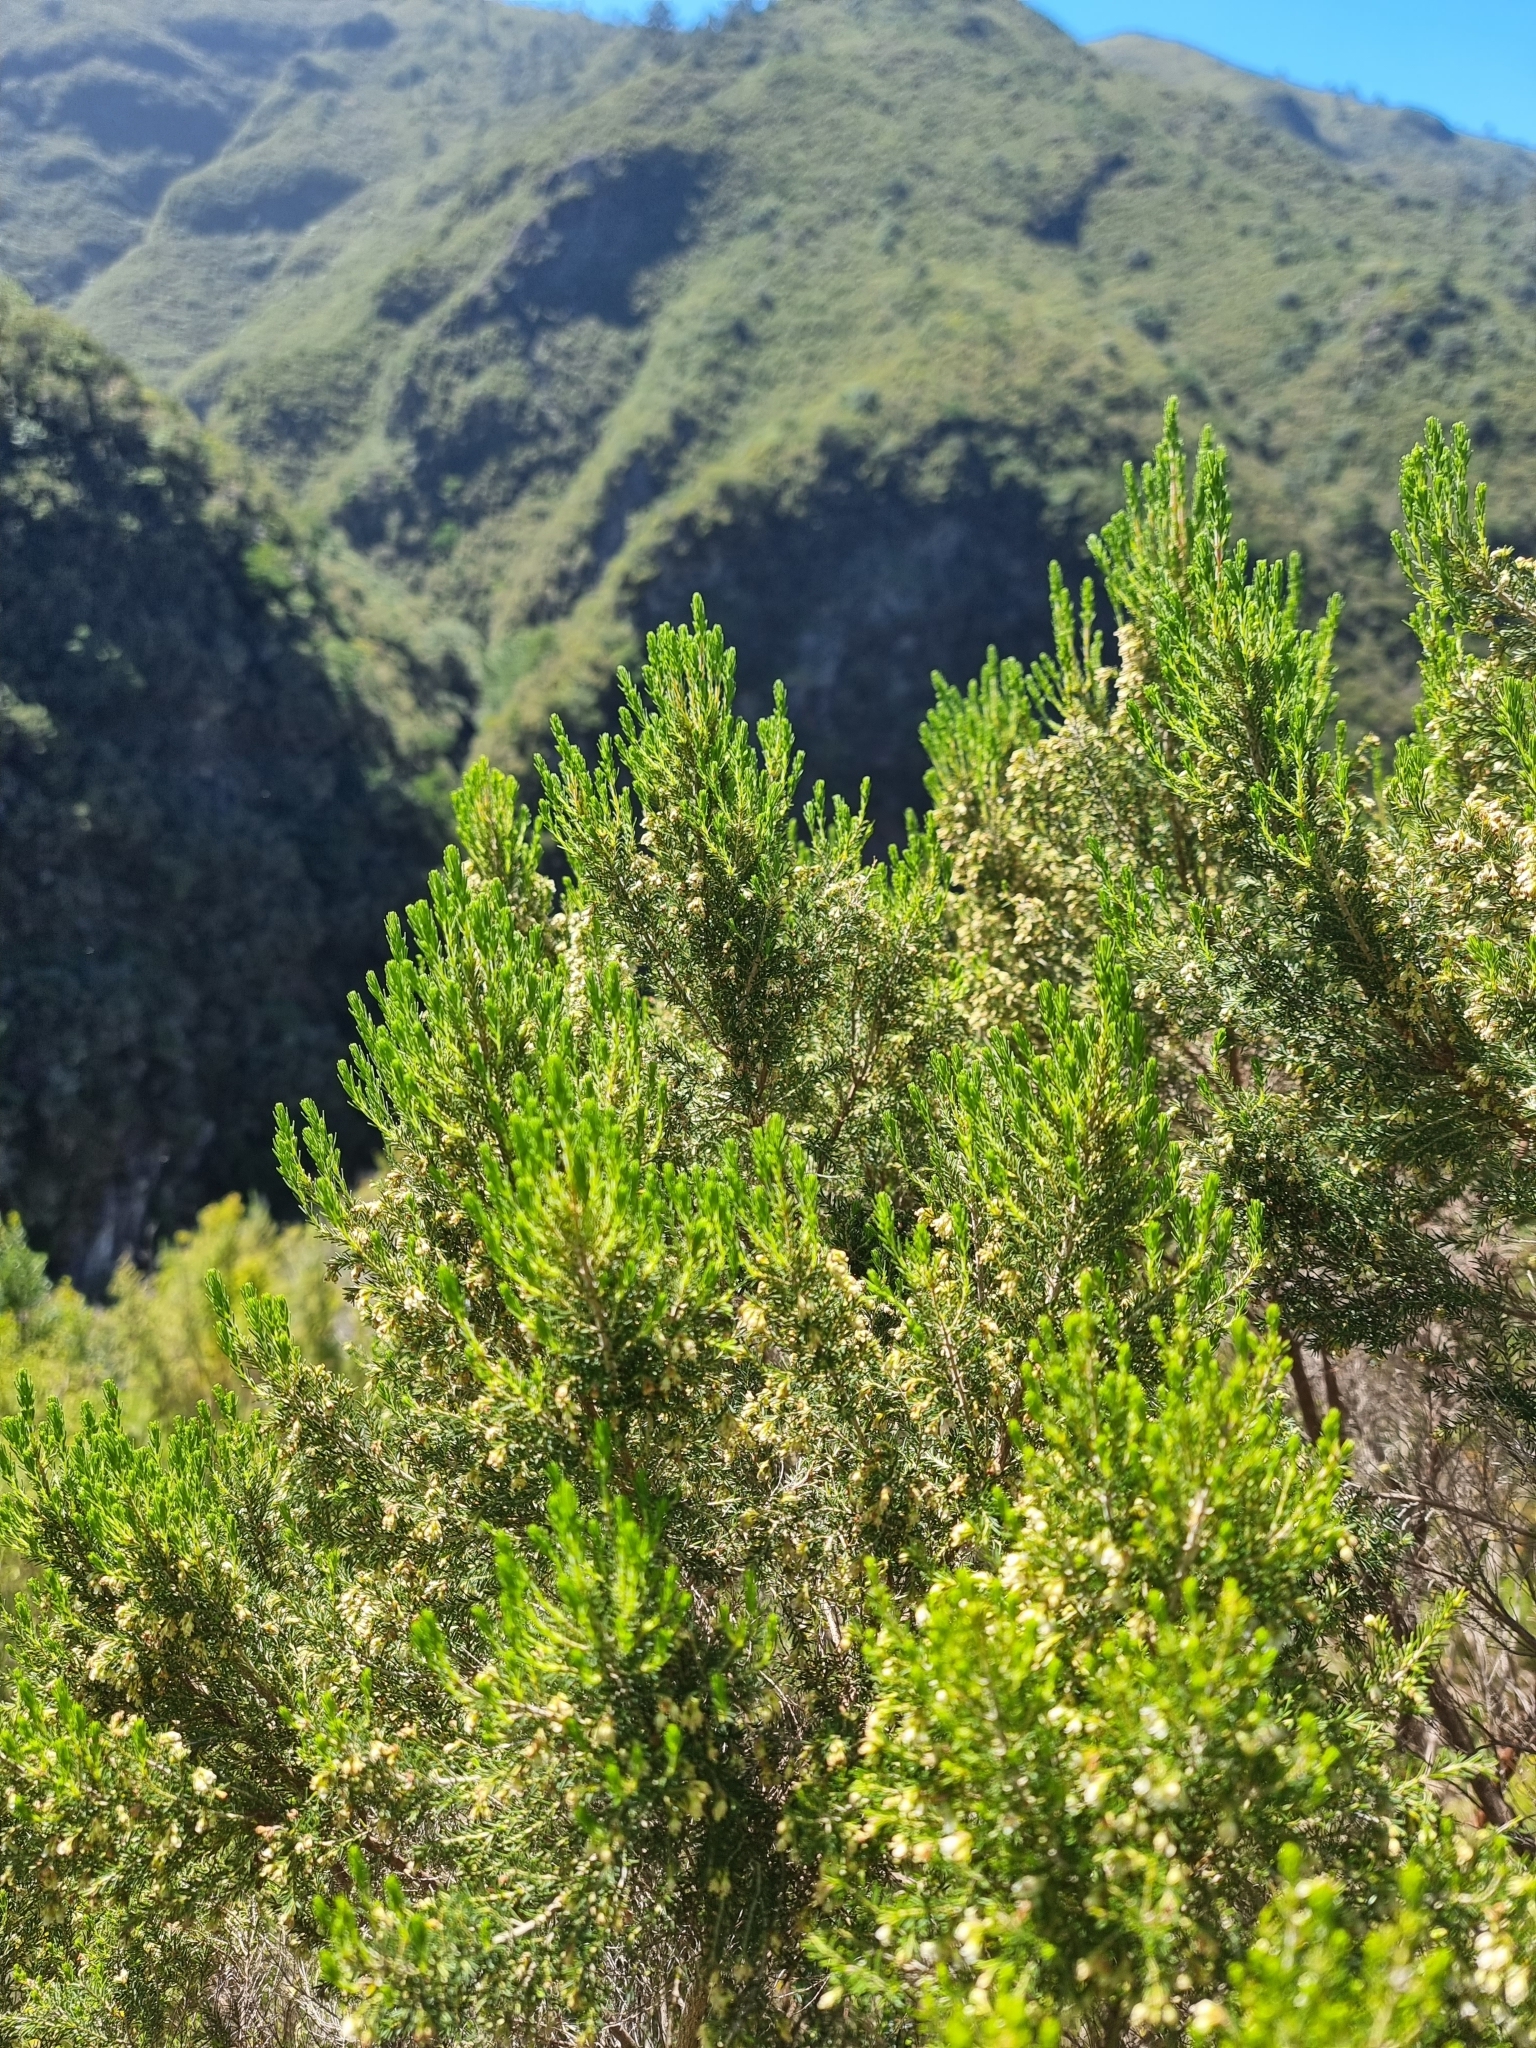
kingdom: Plantae
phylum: Tracheophyta
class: Magnoliopsida
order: Ericales
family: Ericaceae
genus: Erica
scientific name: Erica canariensis
